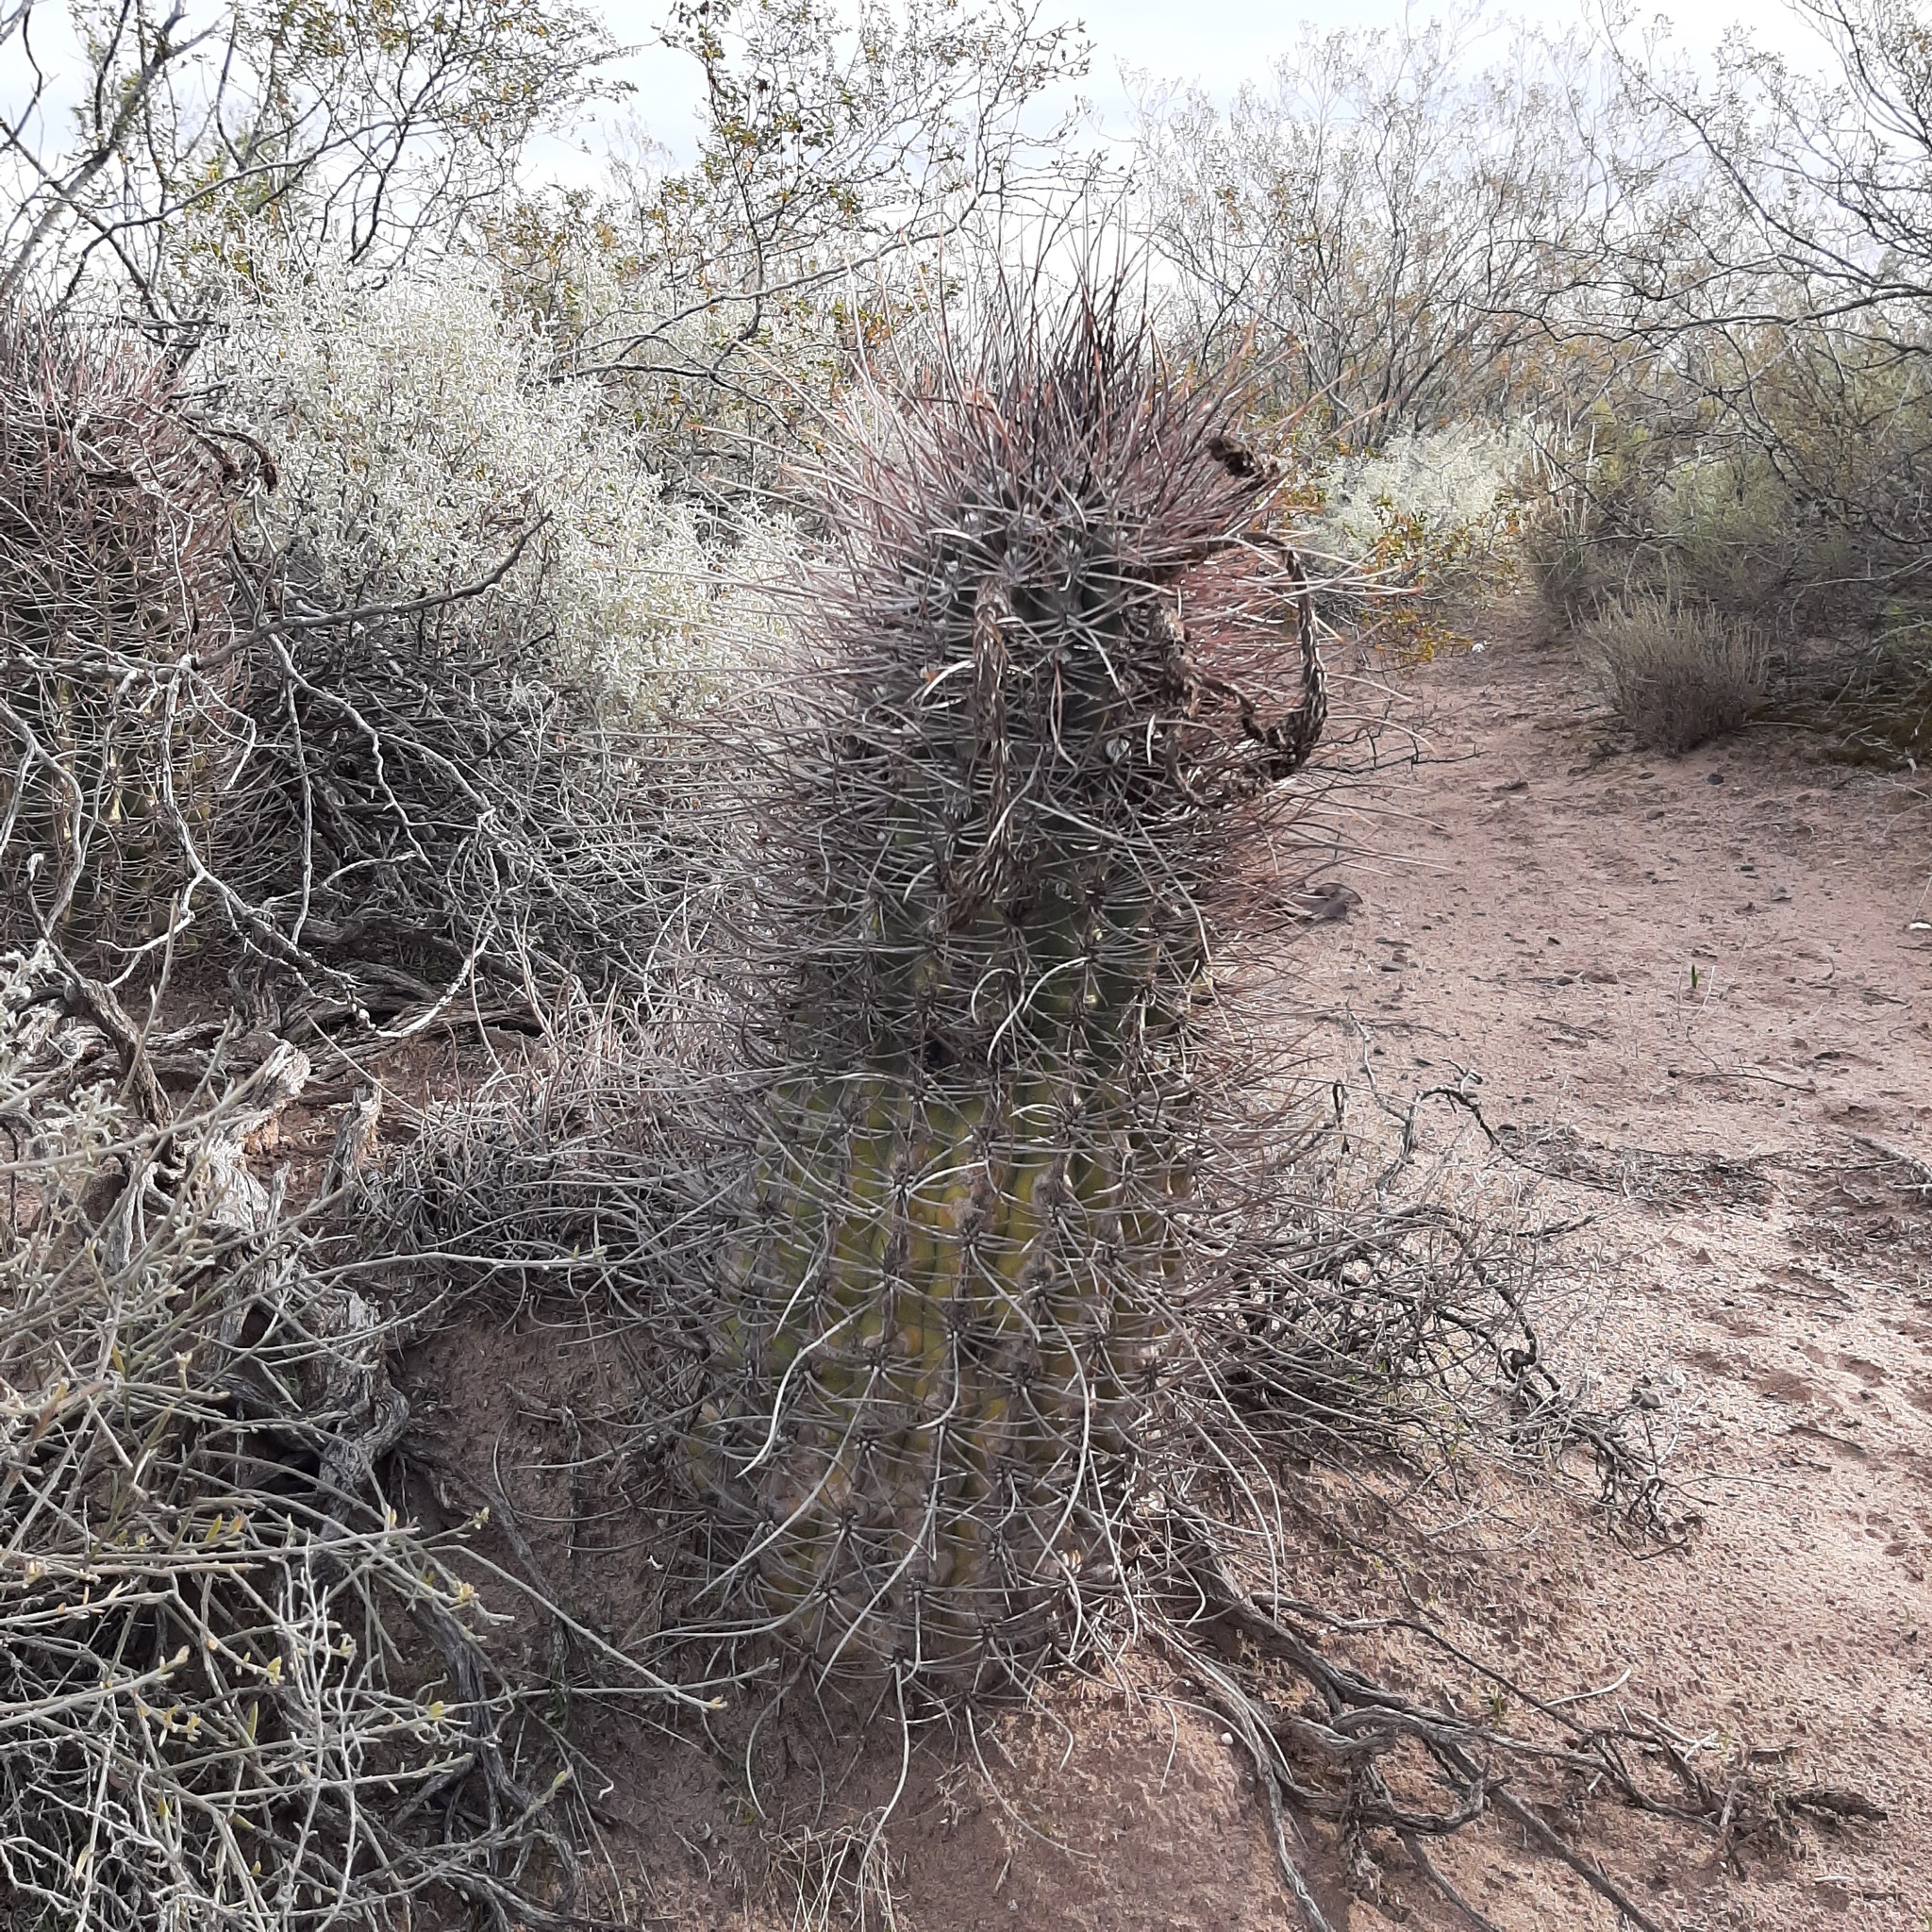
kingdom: Plantae
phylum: Tracheophyta
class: Magnoliopsida
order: Caryophyllales
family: Cactaceae
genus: Acanthocalycium
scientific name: Acanthocalycium leucanthum
